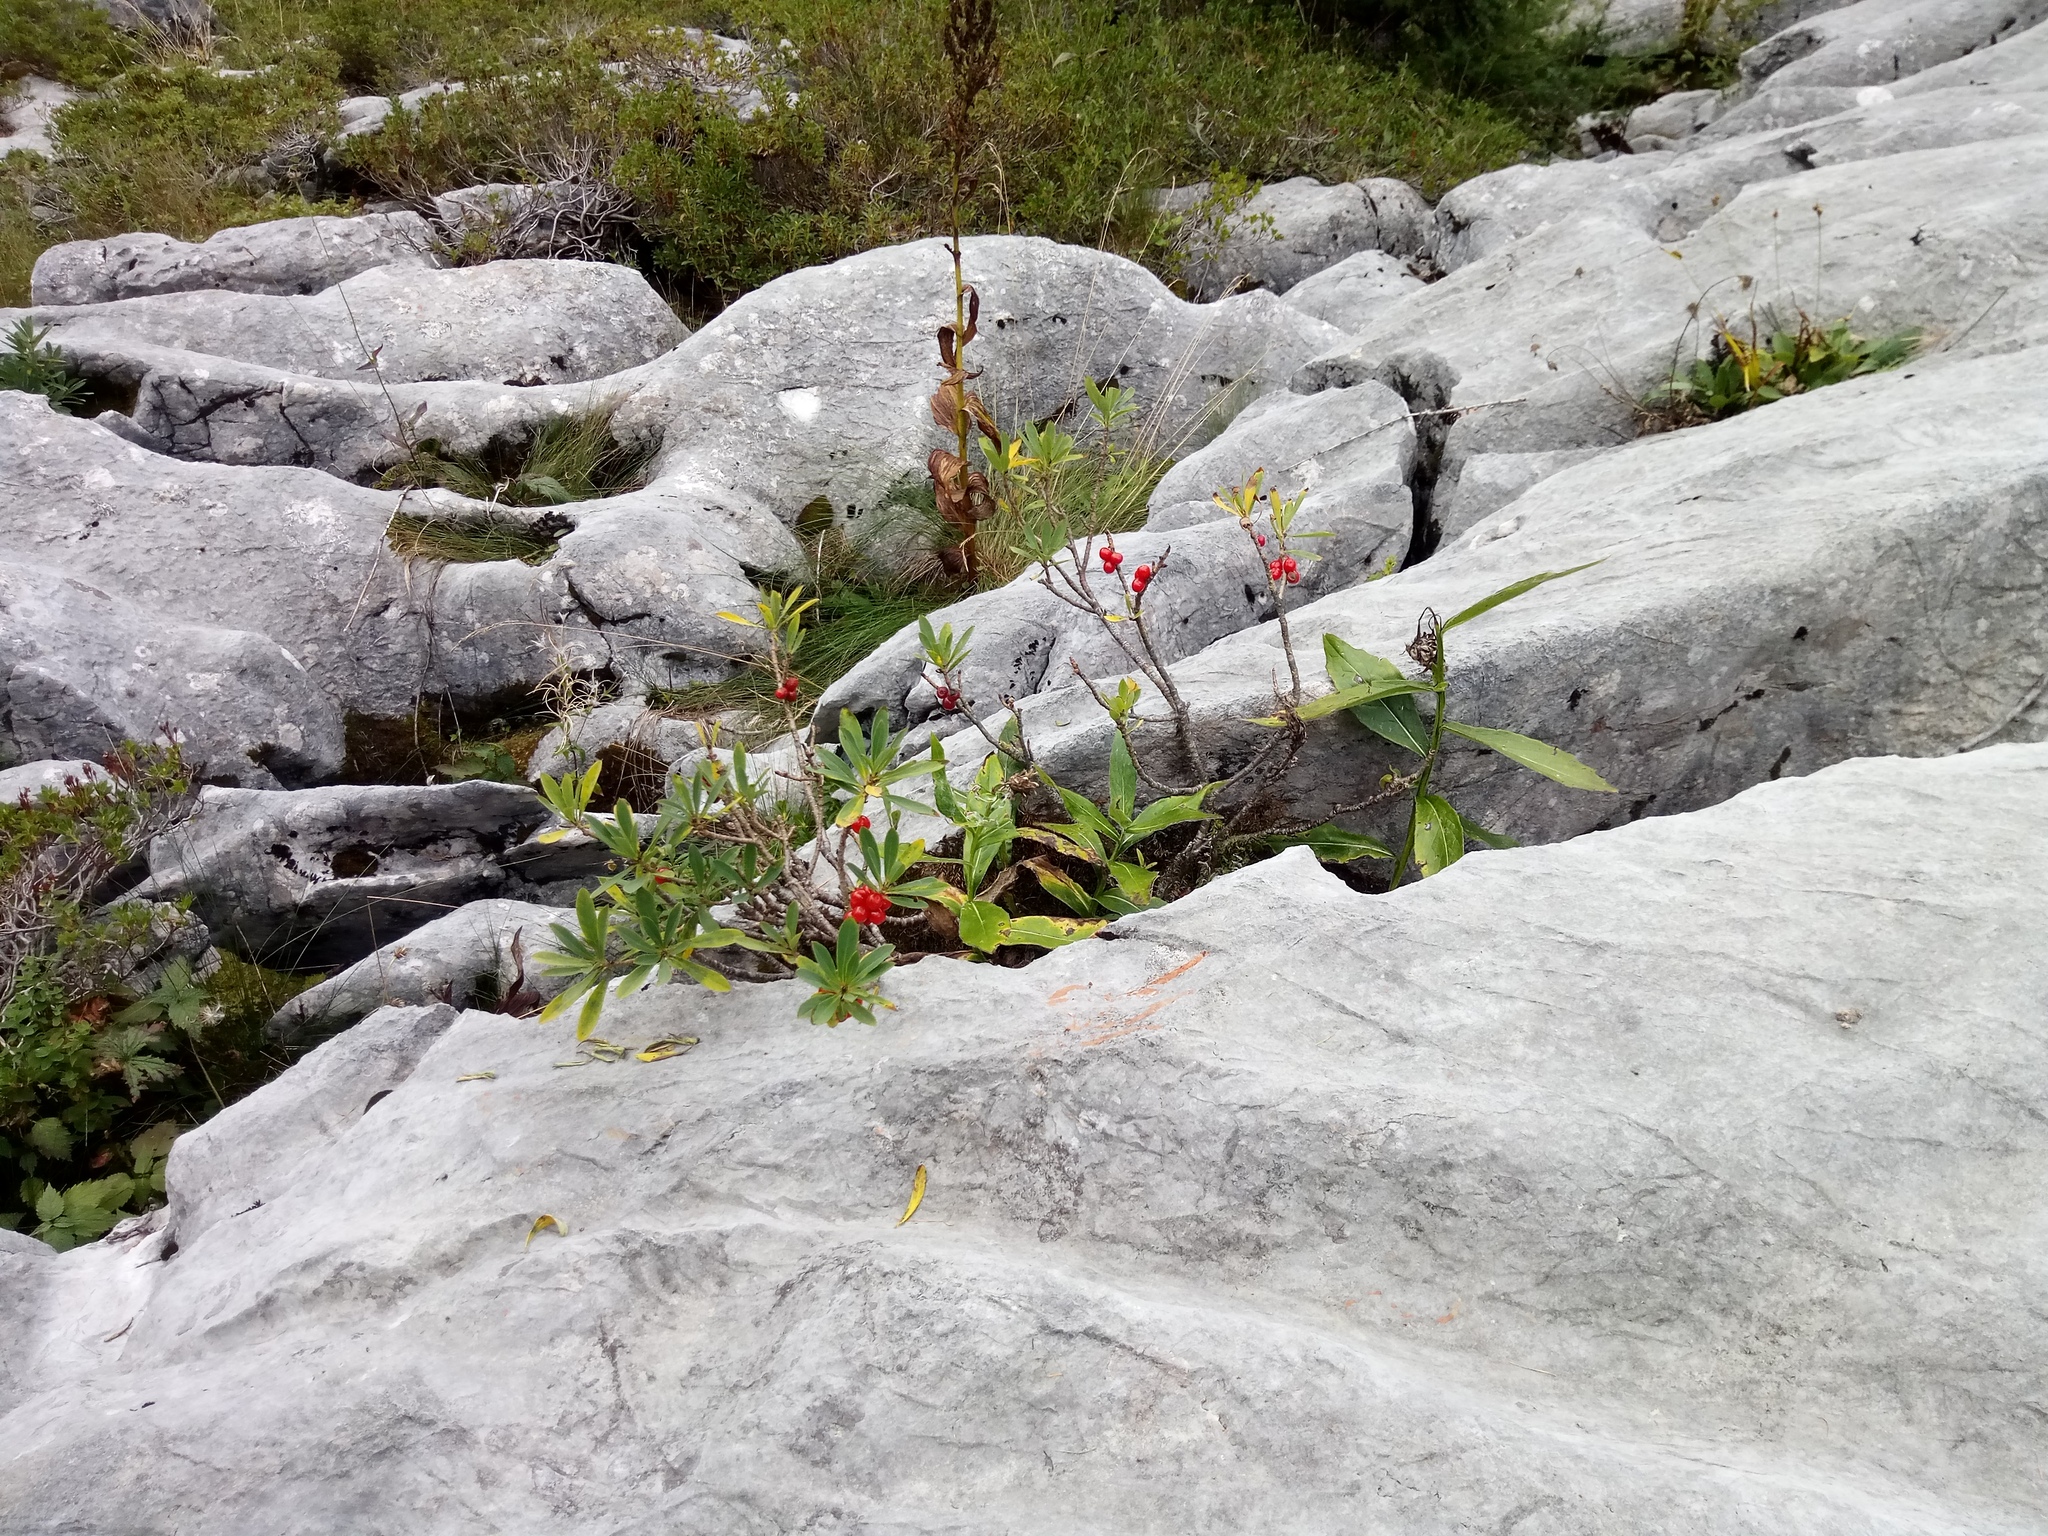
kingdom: Plantae
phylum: Tracheophyta
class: Magnoliopsida
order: Malvales
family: Thymelaeaceae
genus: Daphne
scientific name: Daphne mezereum
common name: Mezereon
